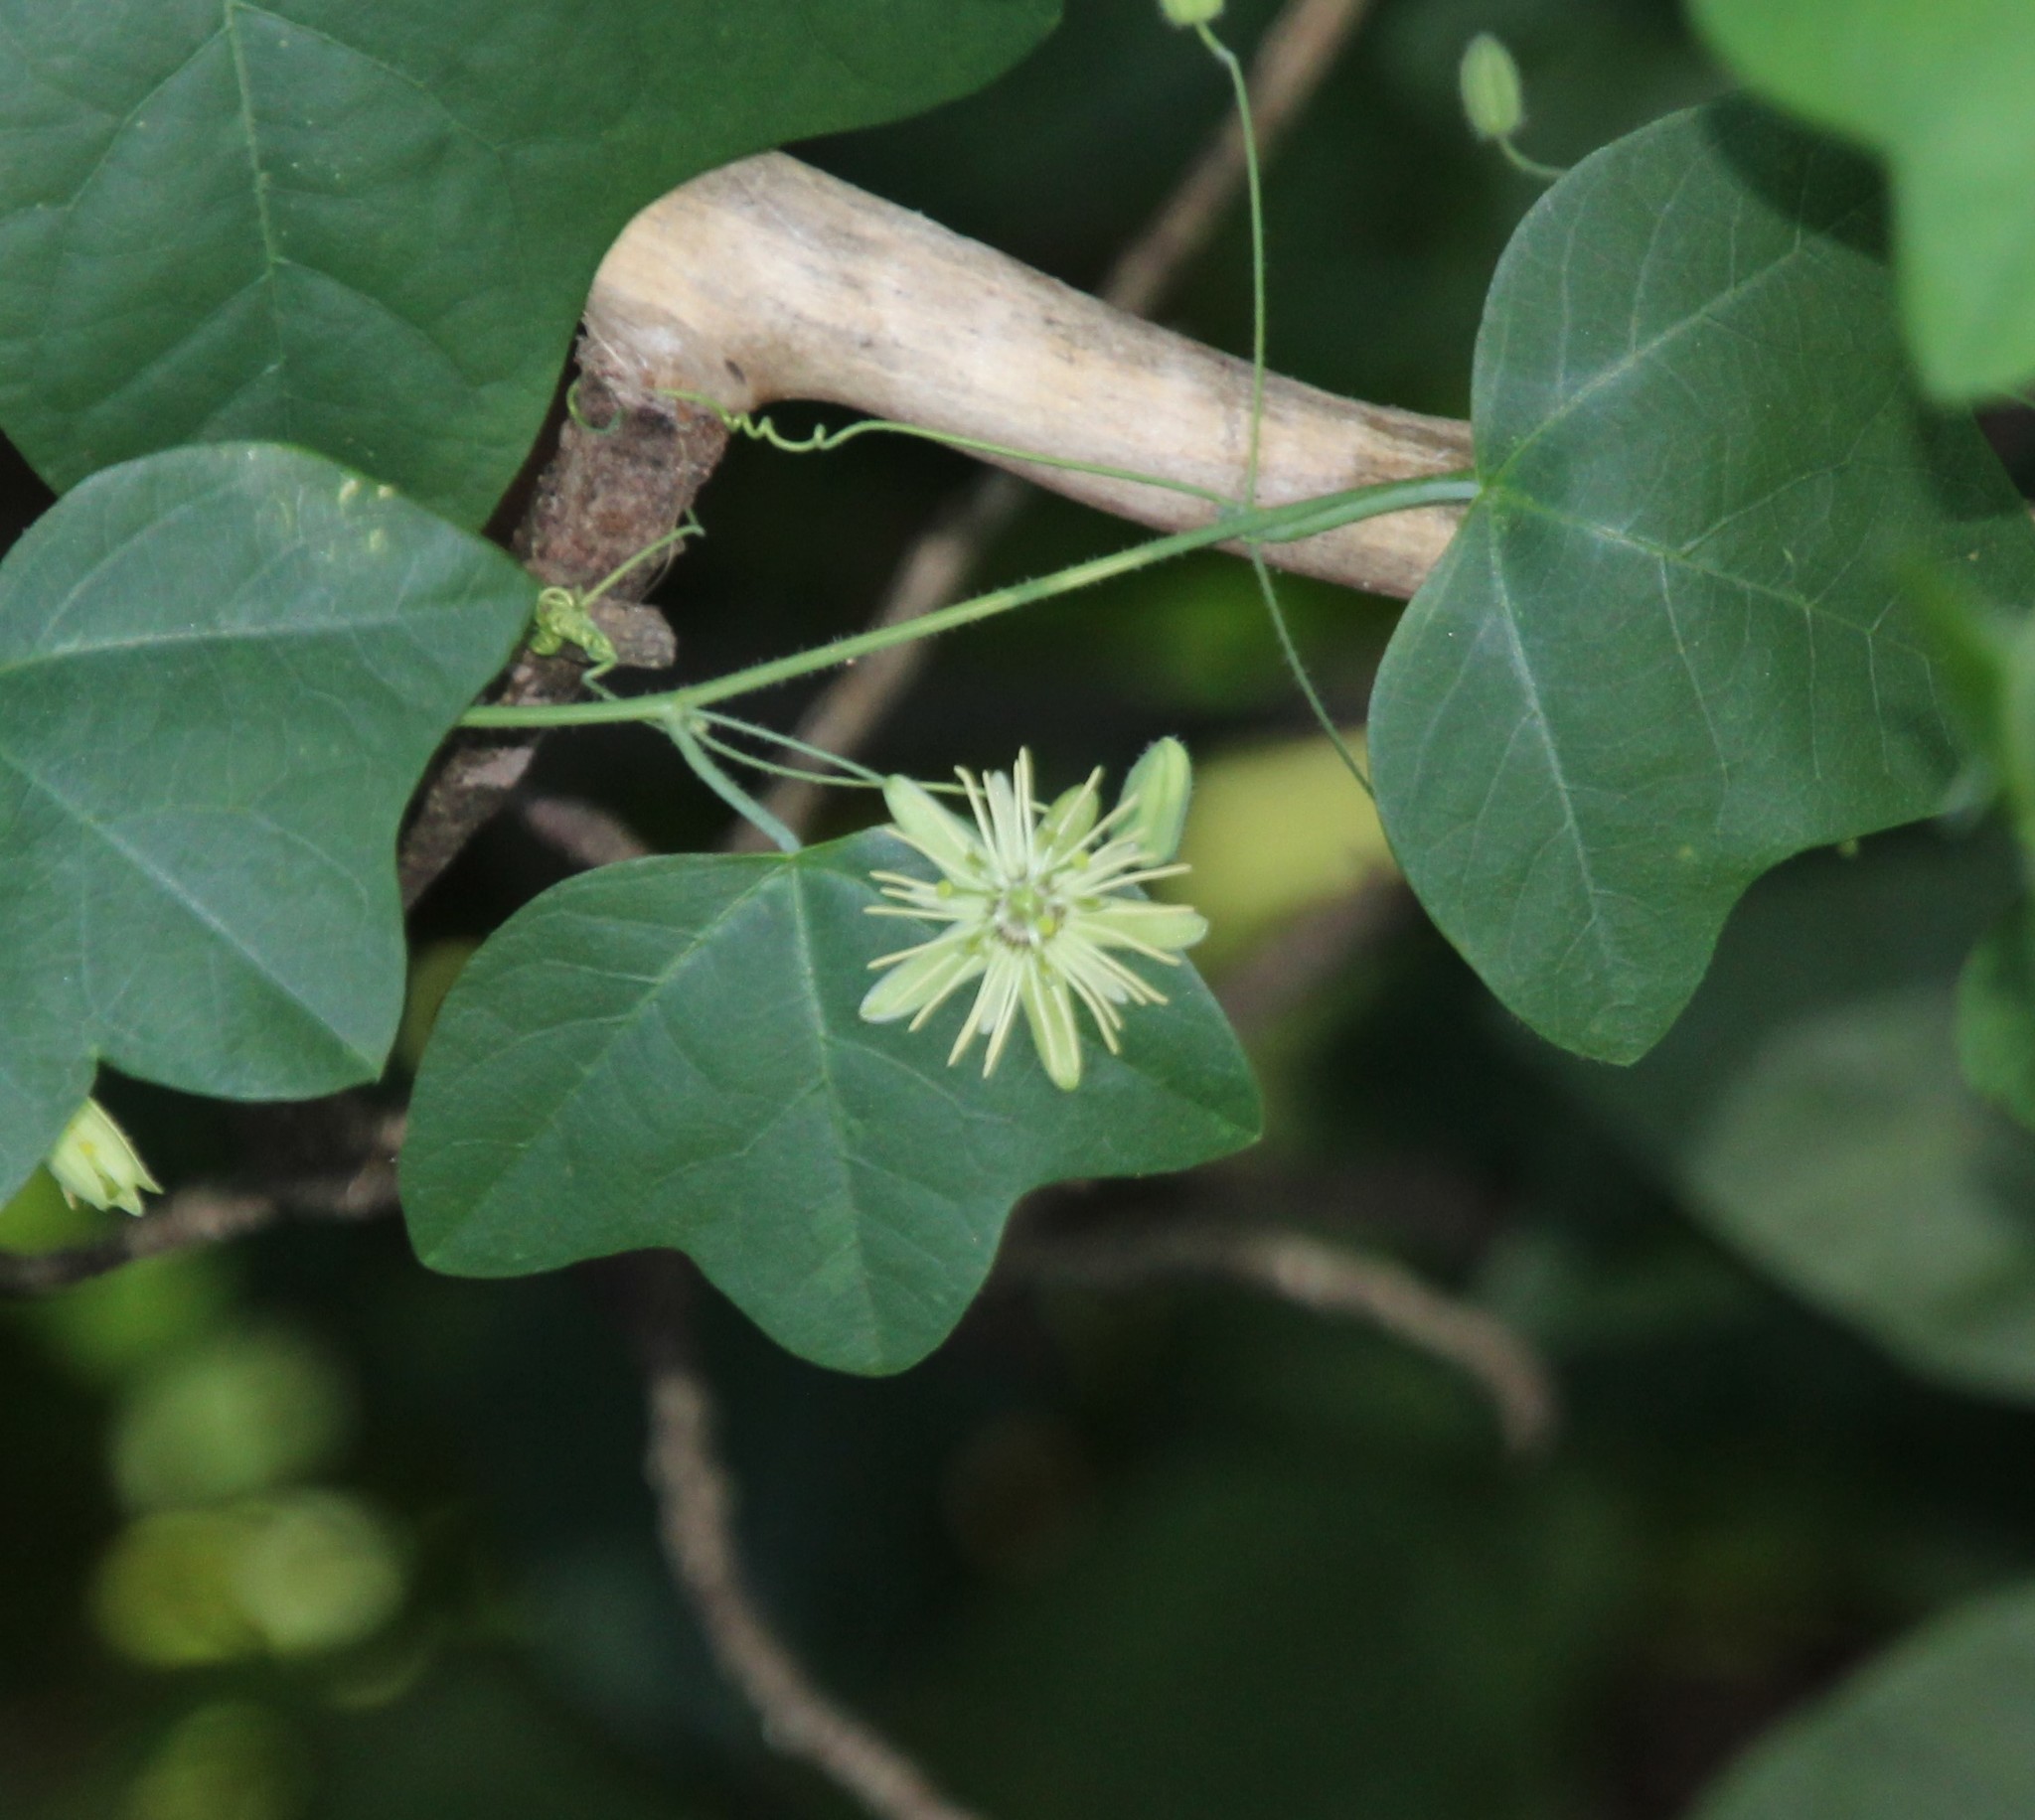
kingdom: Plantae
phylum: Tracheophyta
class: Magnoliopsida
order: Malpighiales
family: Passifloraceae
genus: Passiflora
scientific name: Passiflora lutea
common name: Yellow passionflower
